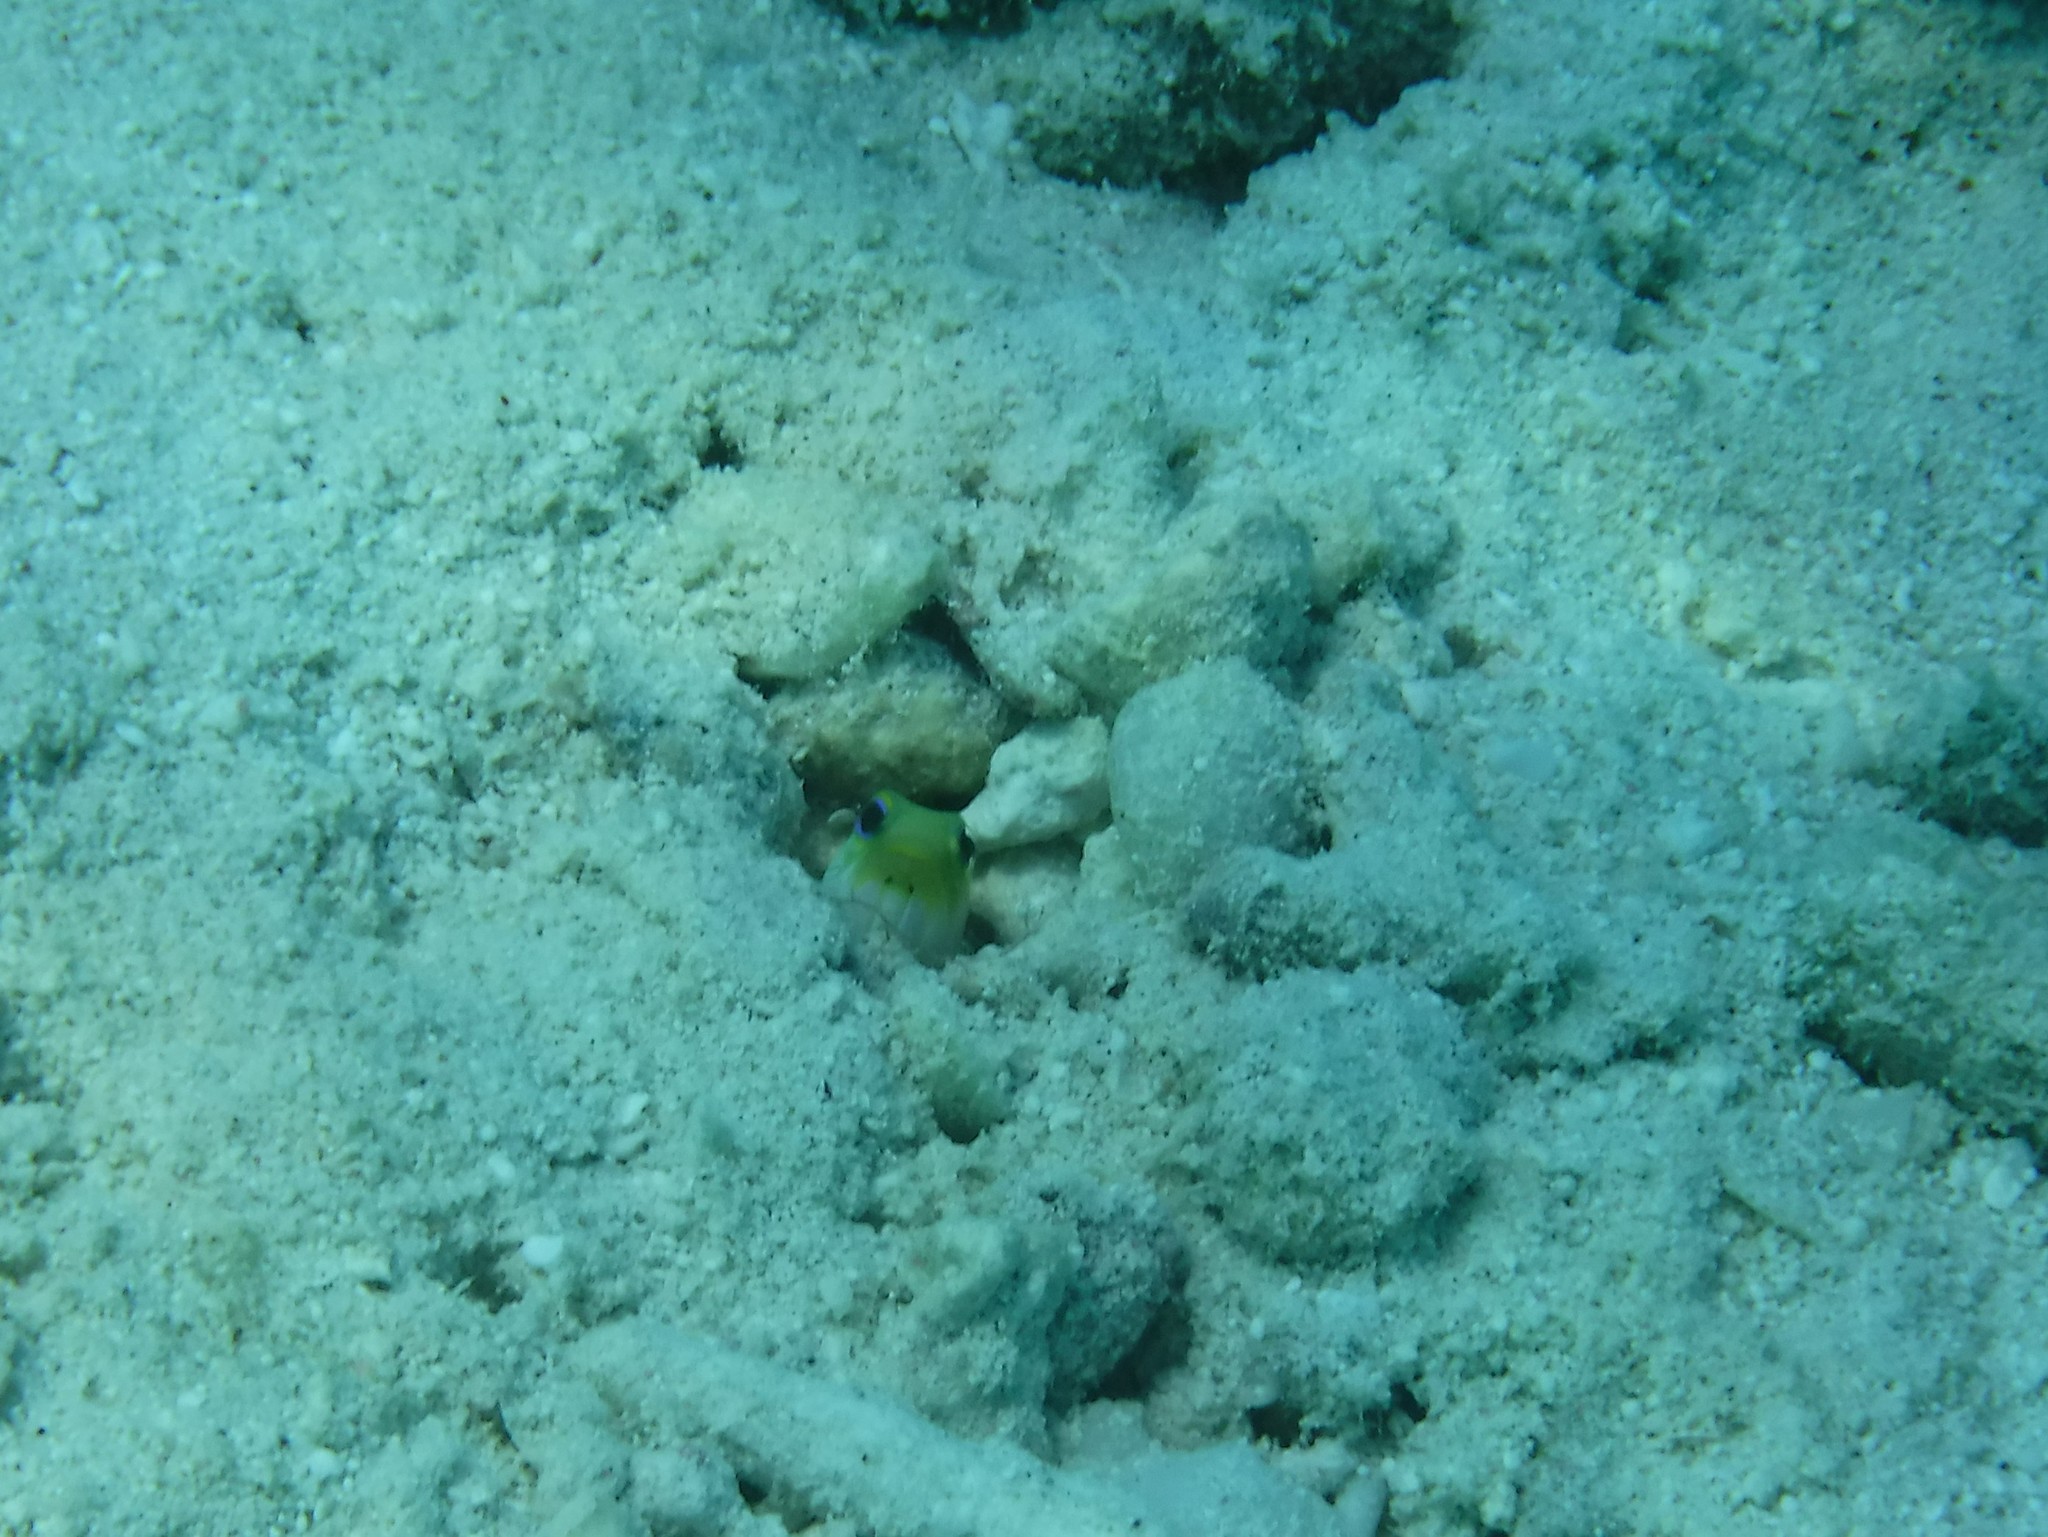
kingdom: Animalia
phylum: Chordata
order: Perciformes
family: Opistognathidae
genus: Opistognathus
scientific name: Opistognathus aurifrons
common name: Yellowhead jawfish
